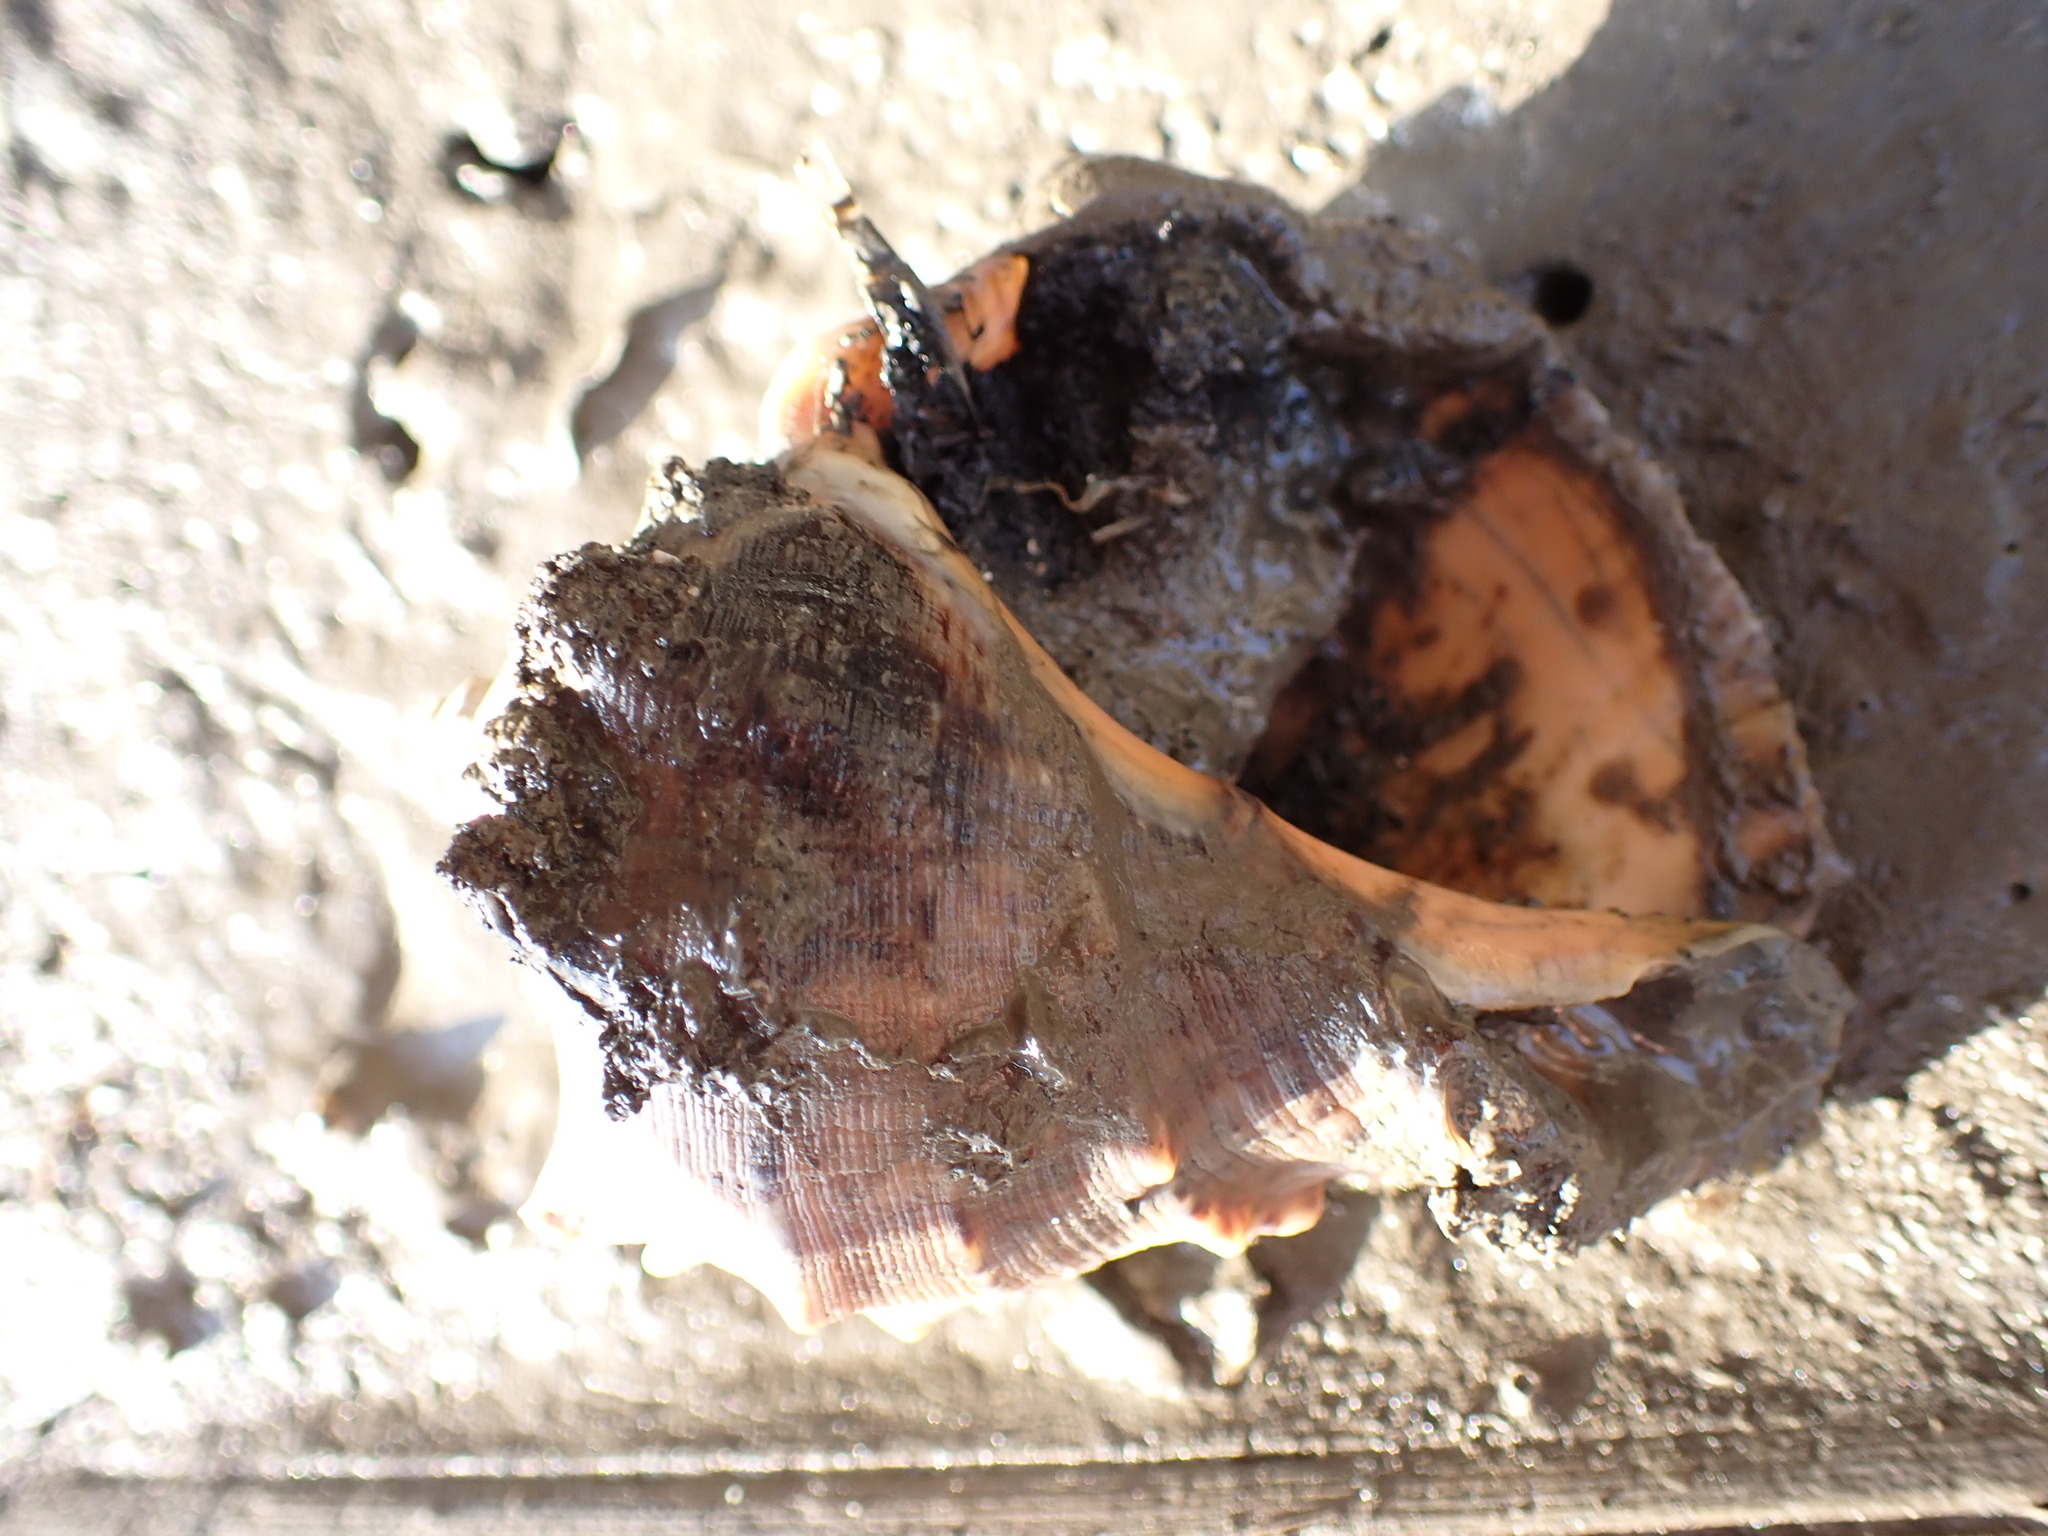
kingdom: Animalia
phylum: Mollusca
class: Gastropoda
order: Neogastropoda
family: Muricidae
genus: Rapana
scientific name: Rapana venosa
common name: Veined rapa whelk
